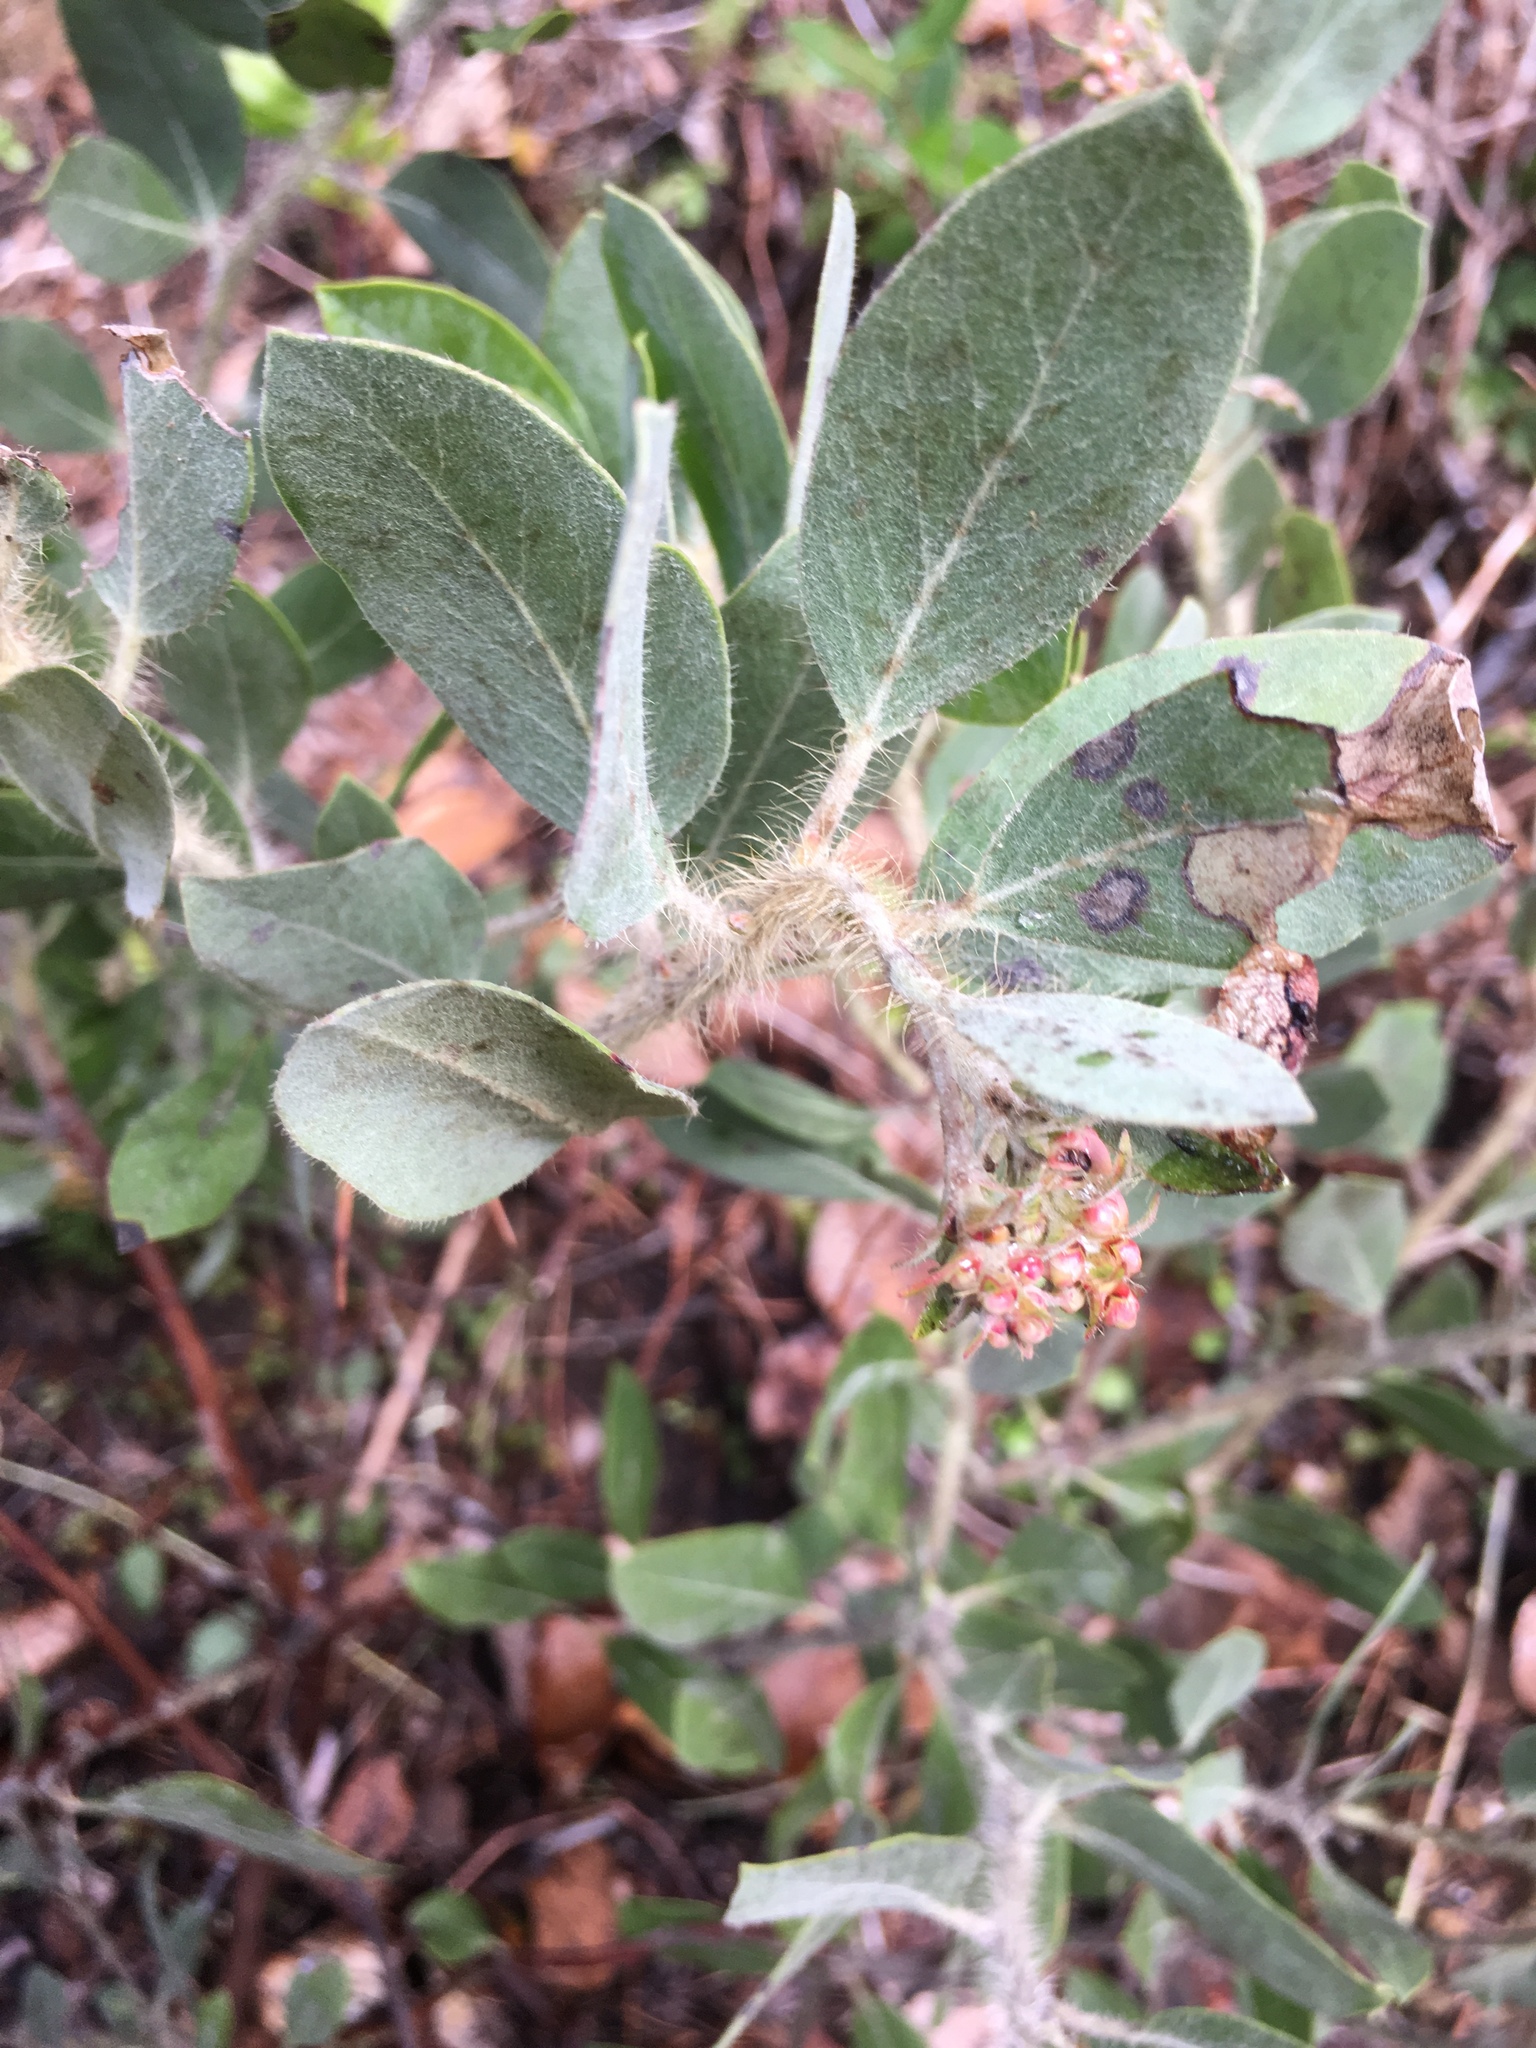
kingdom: Plantae
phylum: Tracheophyta
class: Magnoliopsida
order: Ericales
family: Ericaceae
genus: Arctostaphylos
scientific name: Arctostaphylos columbiana
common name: Bristly bearberry
